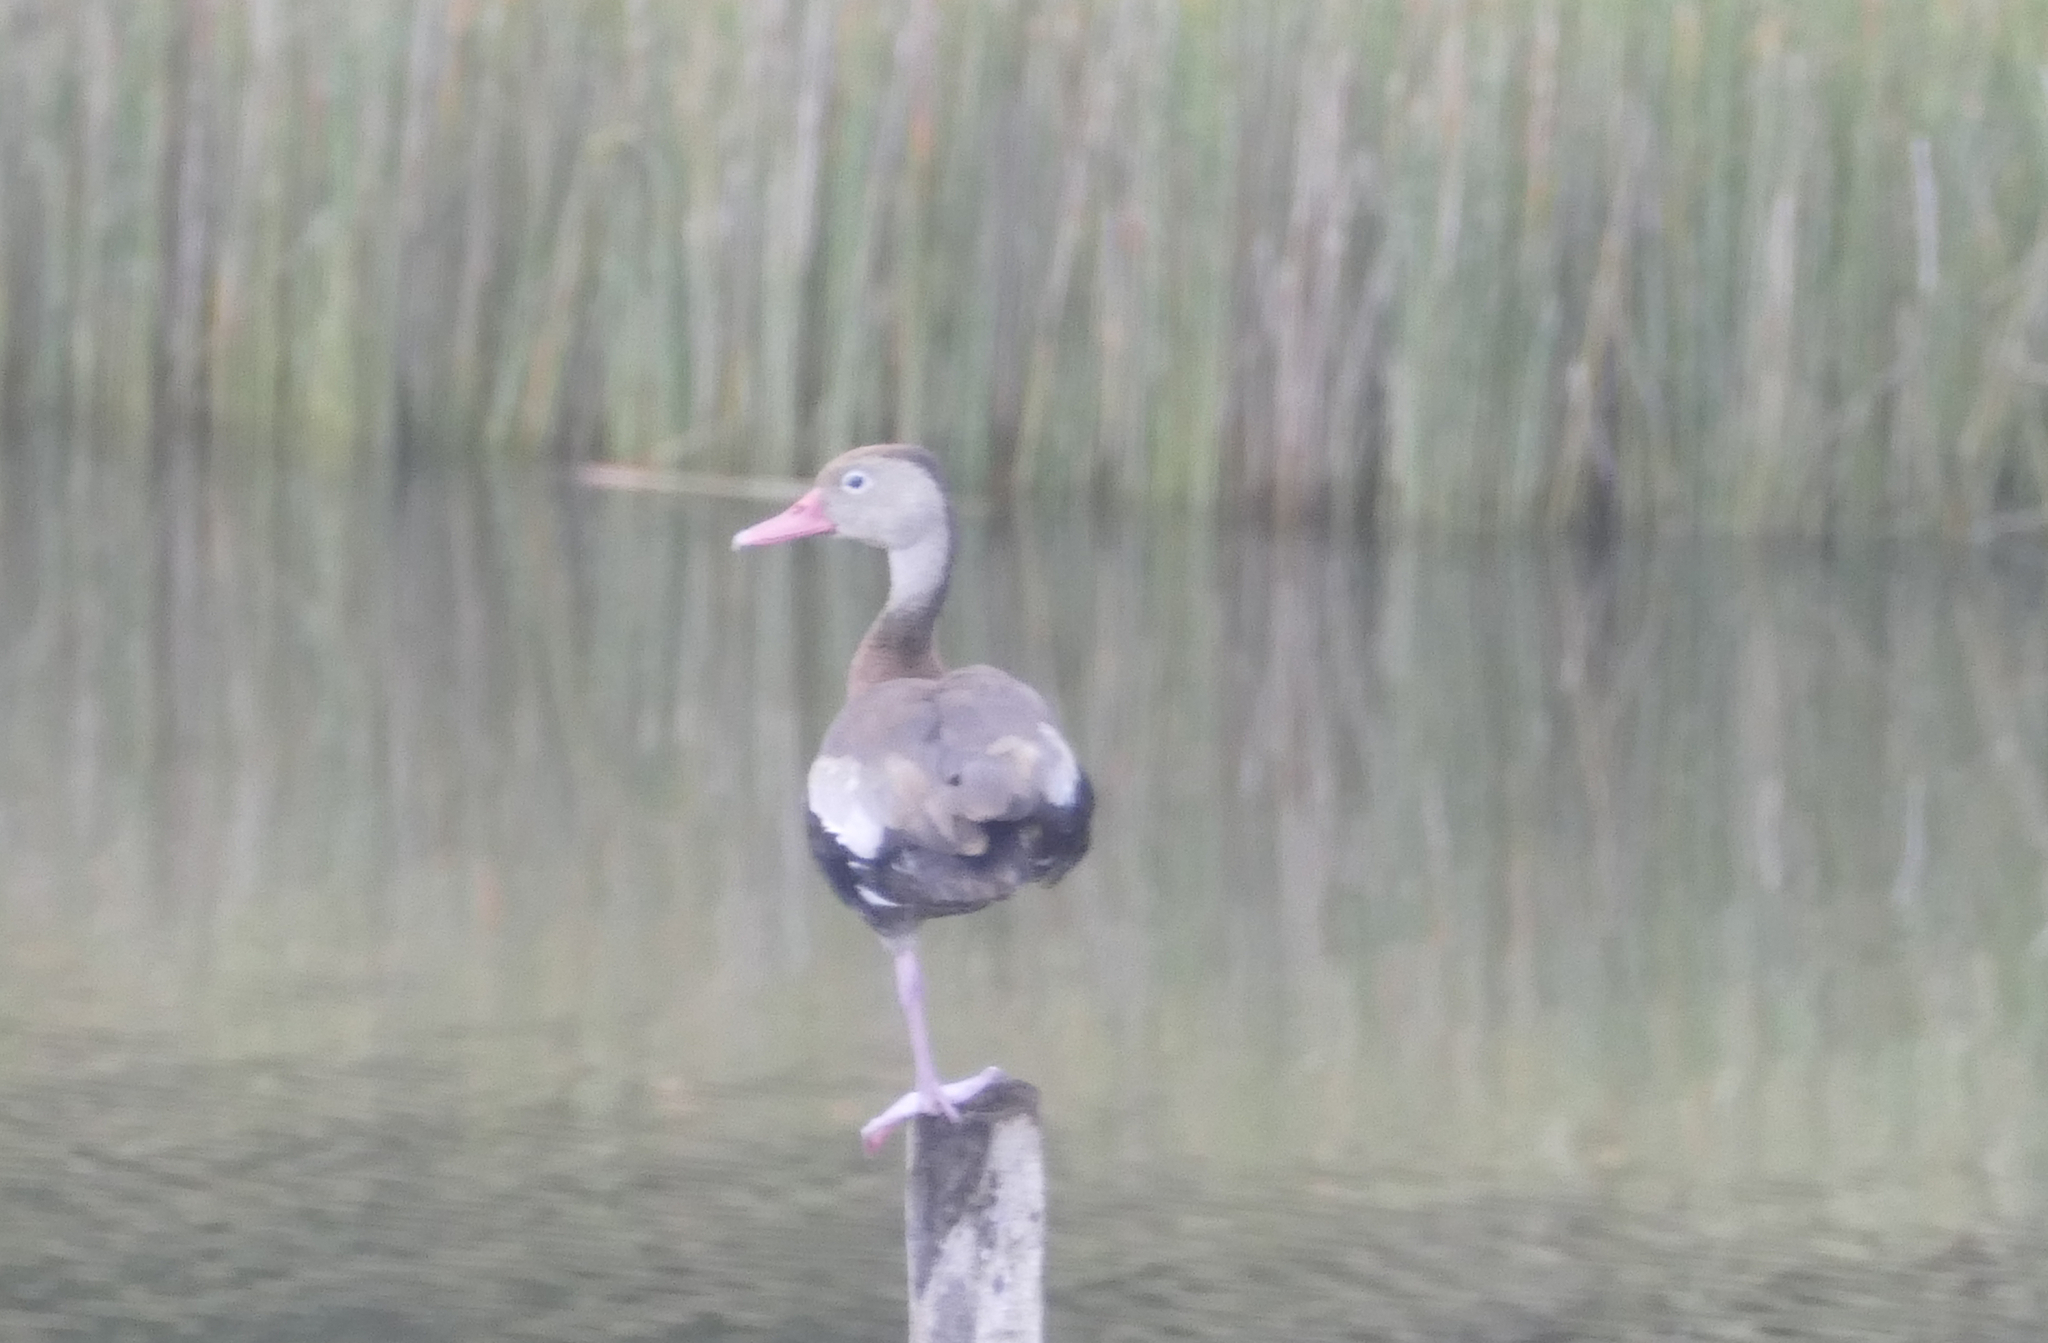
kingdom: Animalia
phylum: Chordata
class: Aves
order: Anseriformes
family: Anatidae
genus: Dendrocygna
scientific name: Dendrocygna autumnalis
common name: Black-bellied whistling duck
